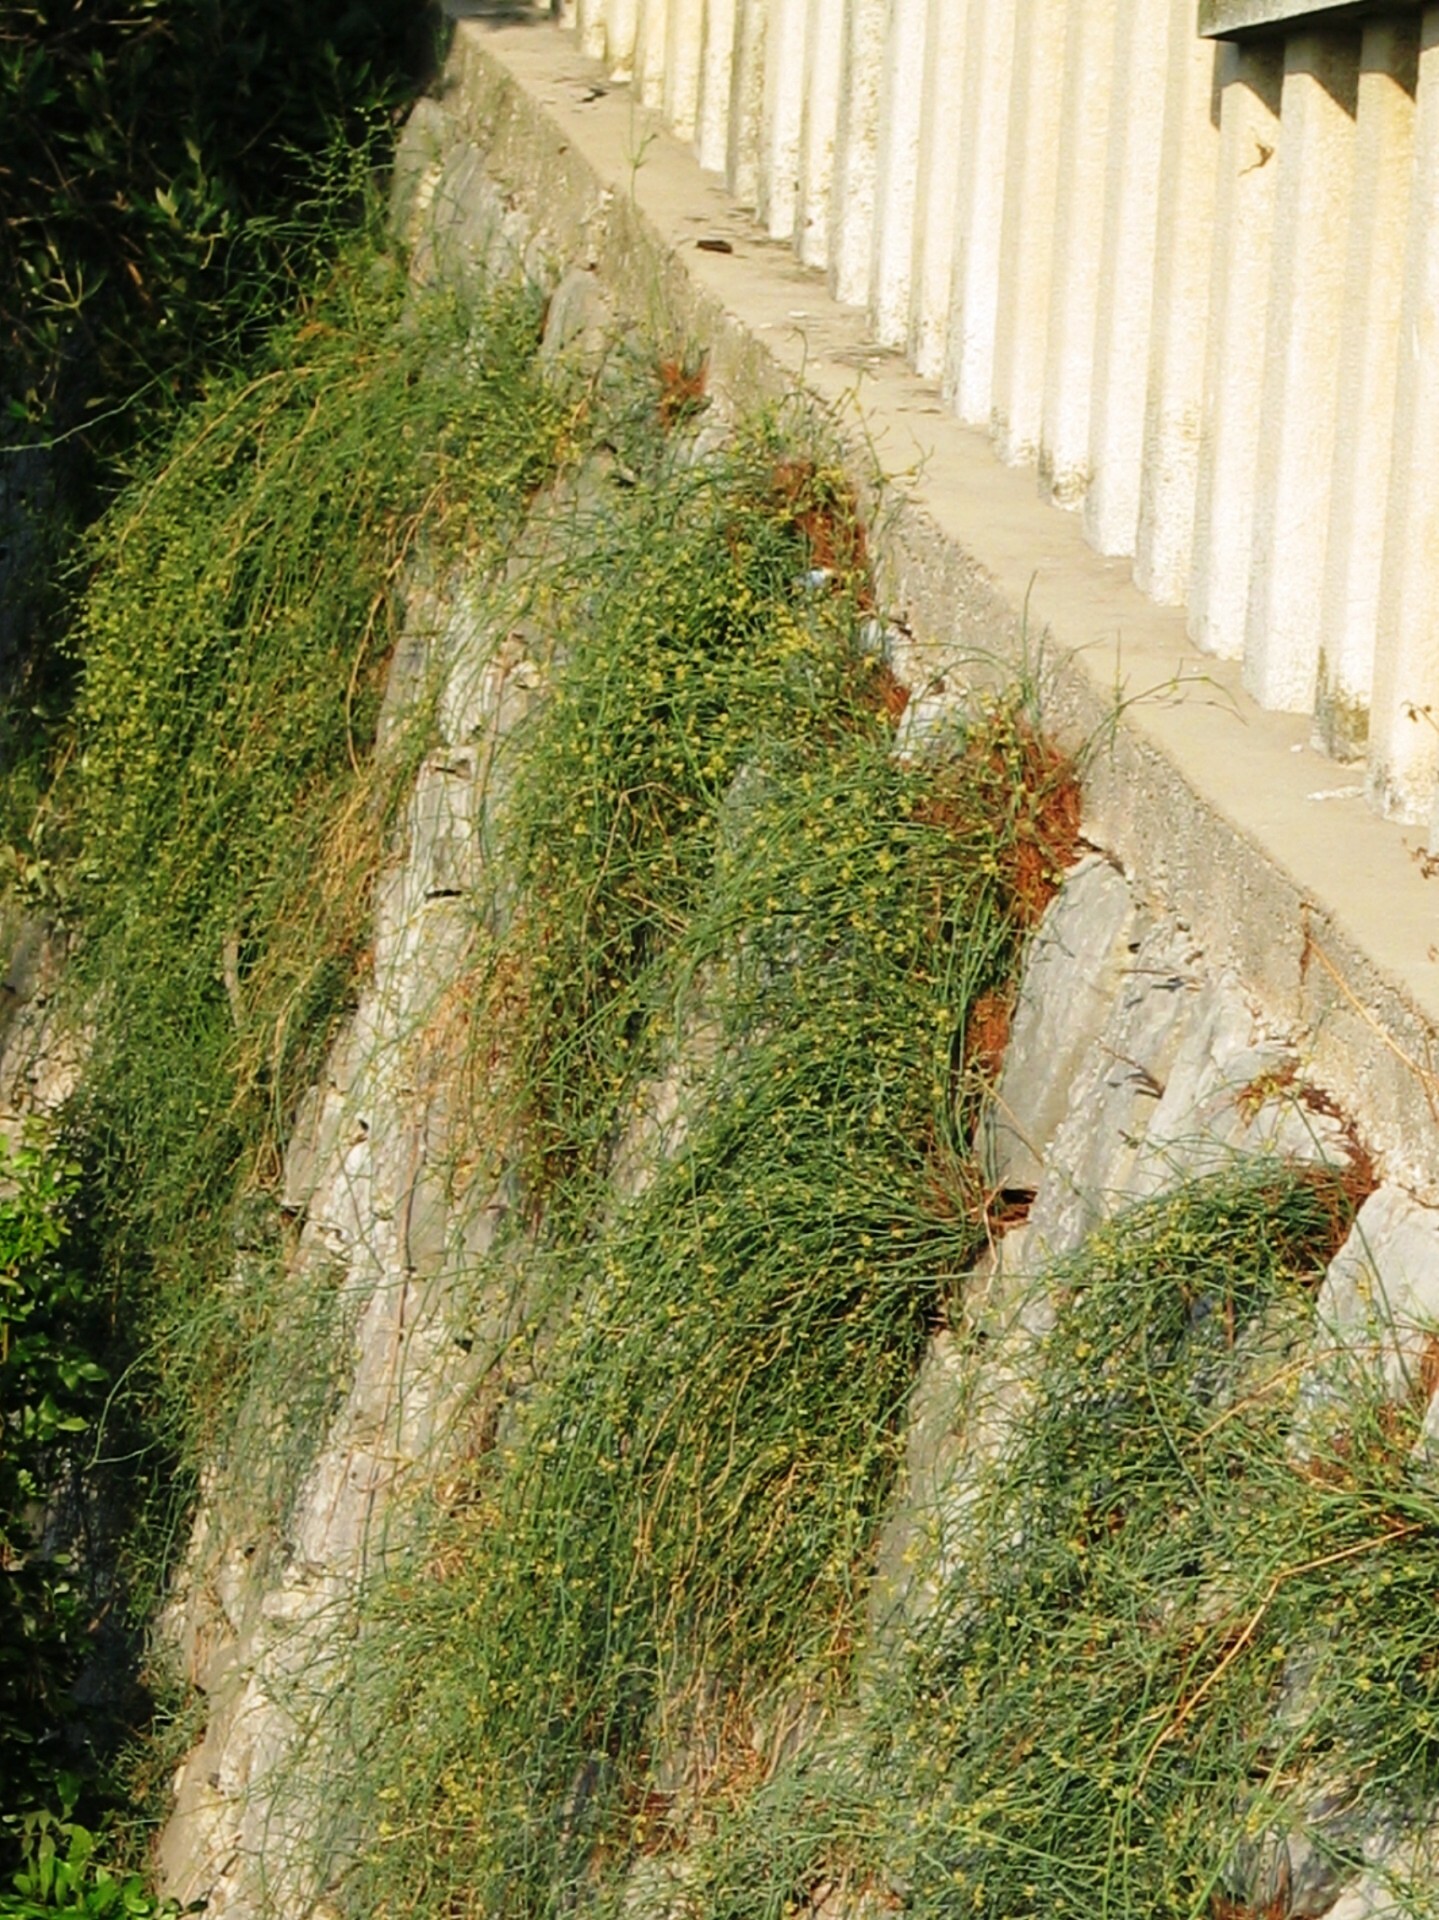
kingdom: Plantae
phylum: Tracheophyta
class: Gnetopsida
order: Ephedrales
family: Ephedraceae
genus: Ephedra
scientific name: Ephedra foeminea
